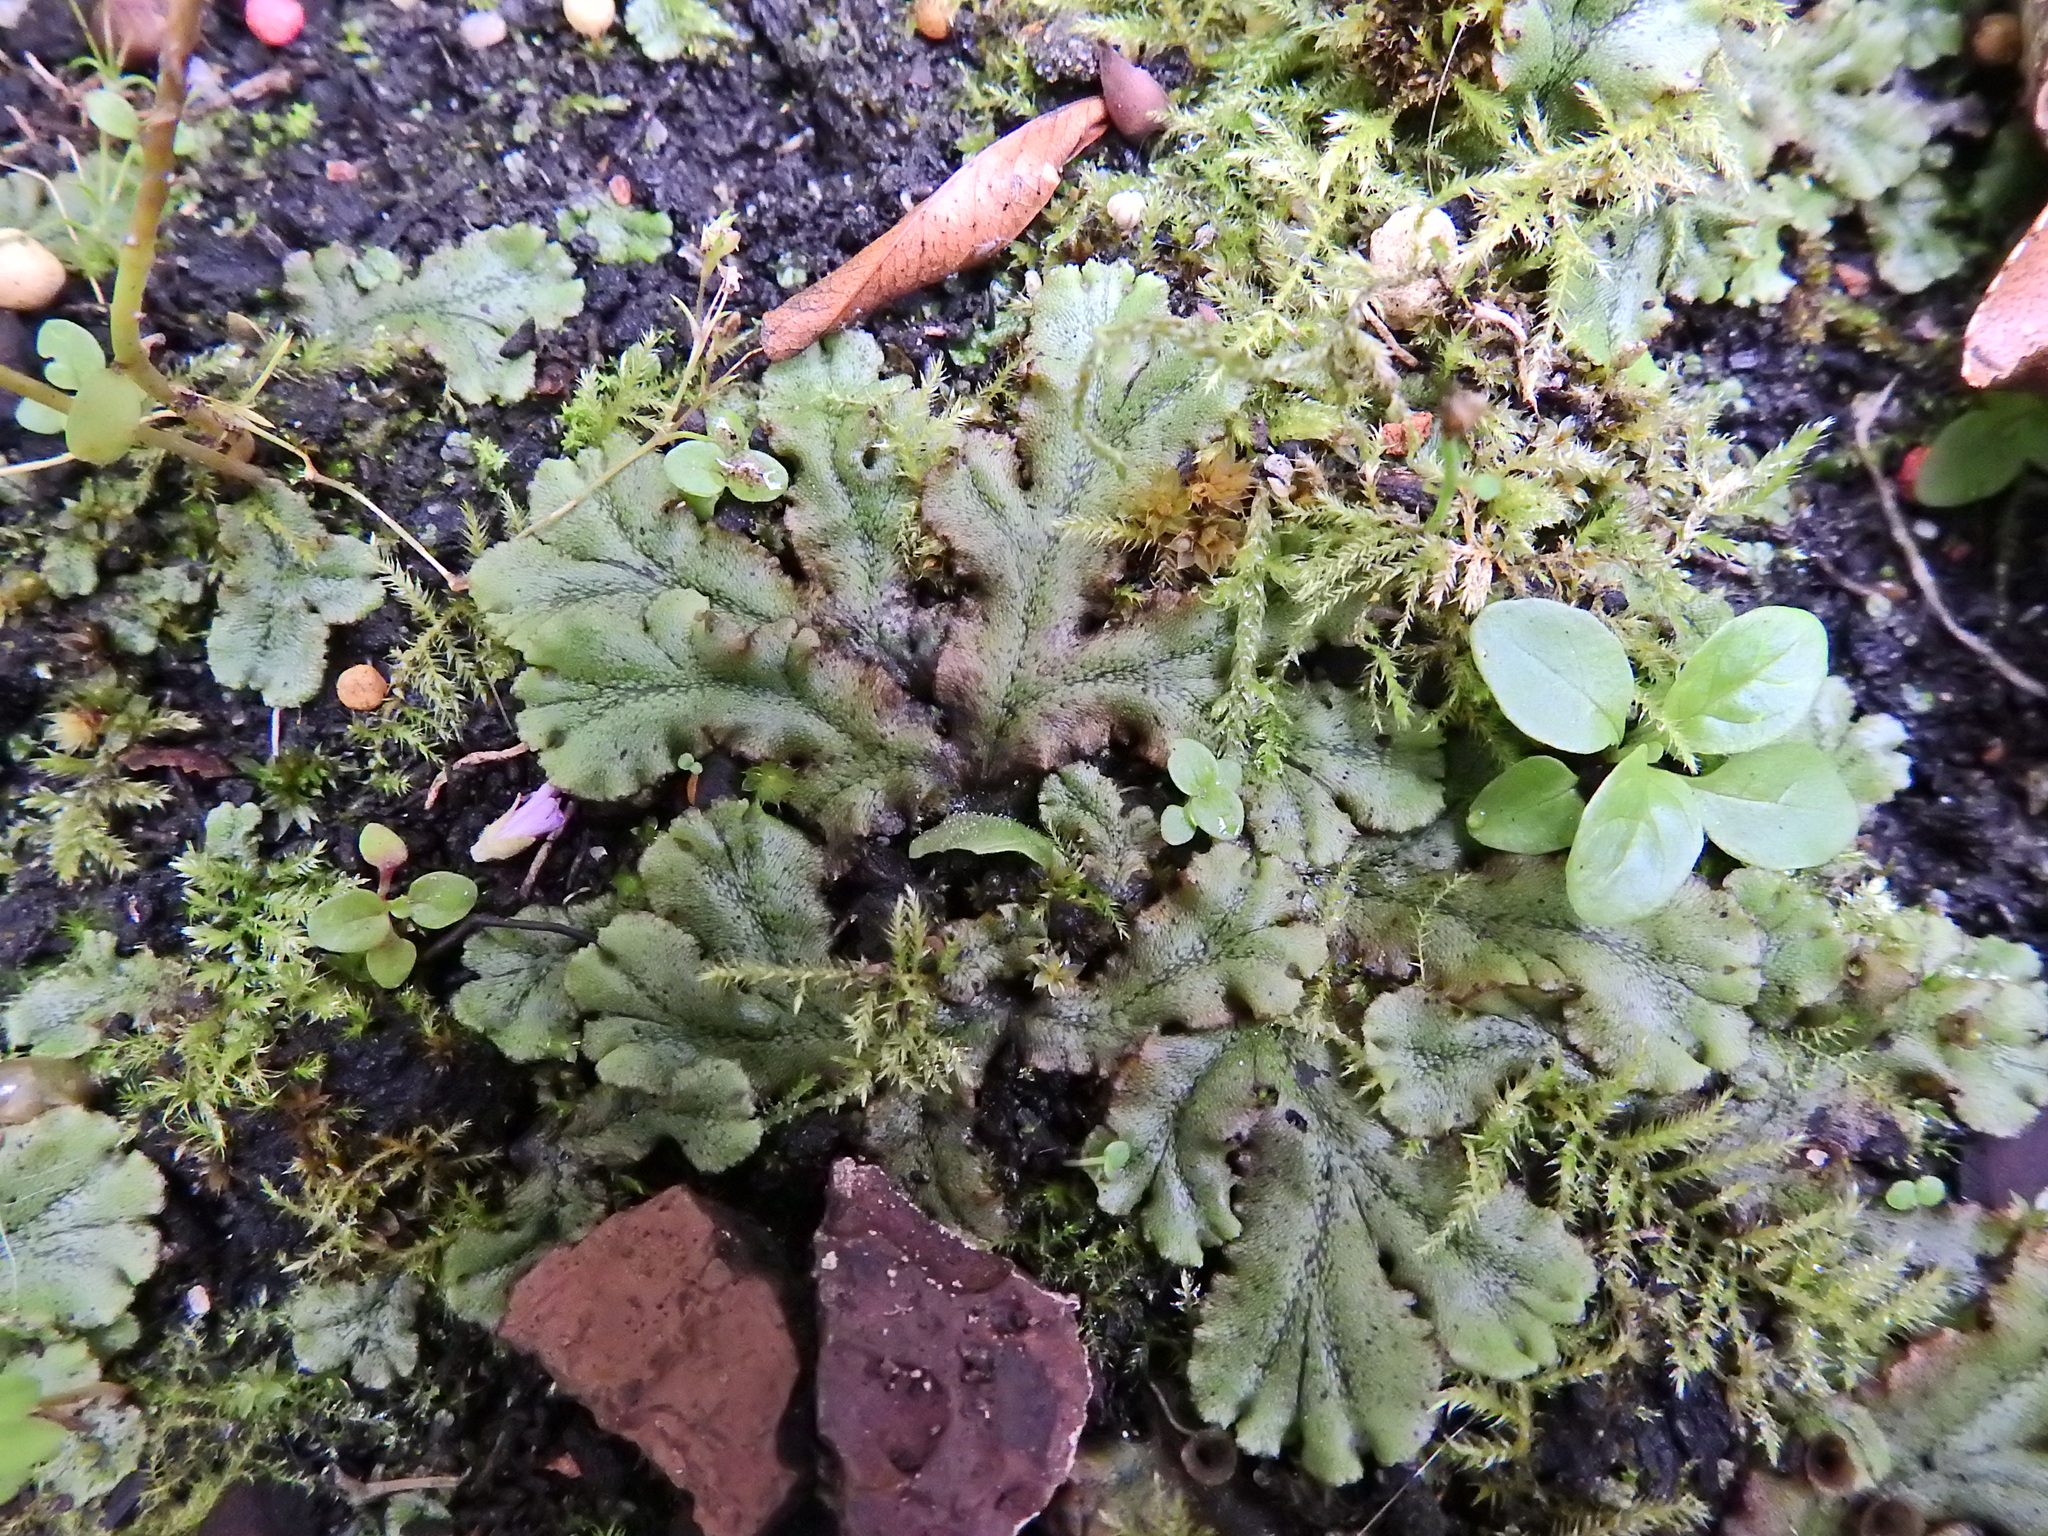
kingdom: Plantae
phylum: Marchantiophyta
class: Marchantiopsida
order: Marchantiales
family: Marchantiaceae
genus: Marchantia
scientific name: Marchantia polymorpha
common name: Common liverwort
